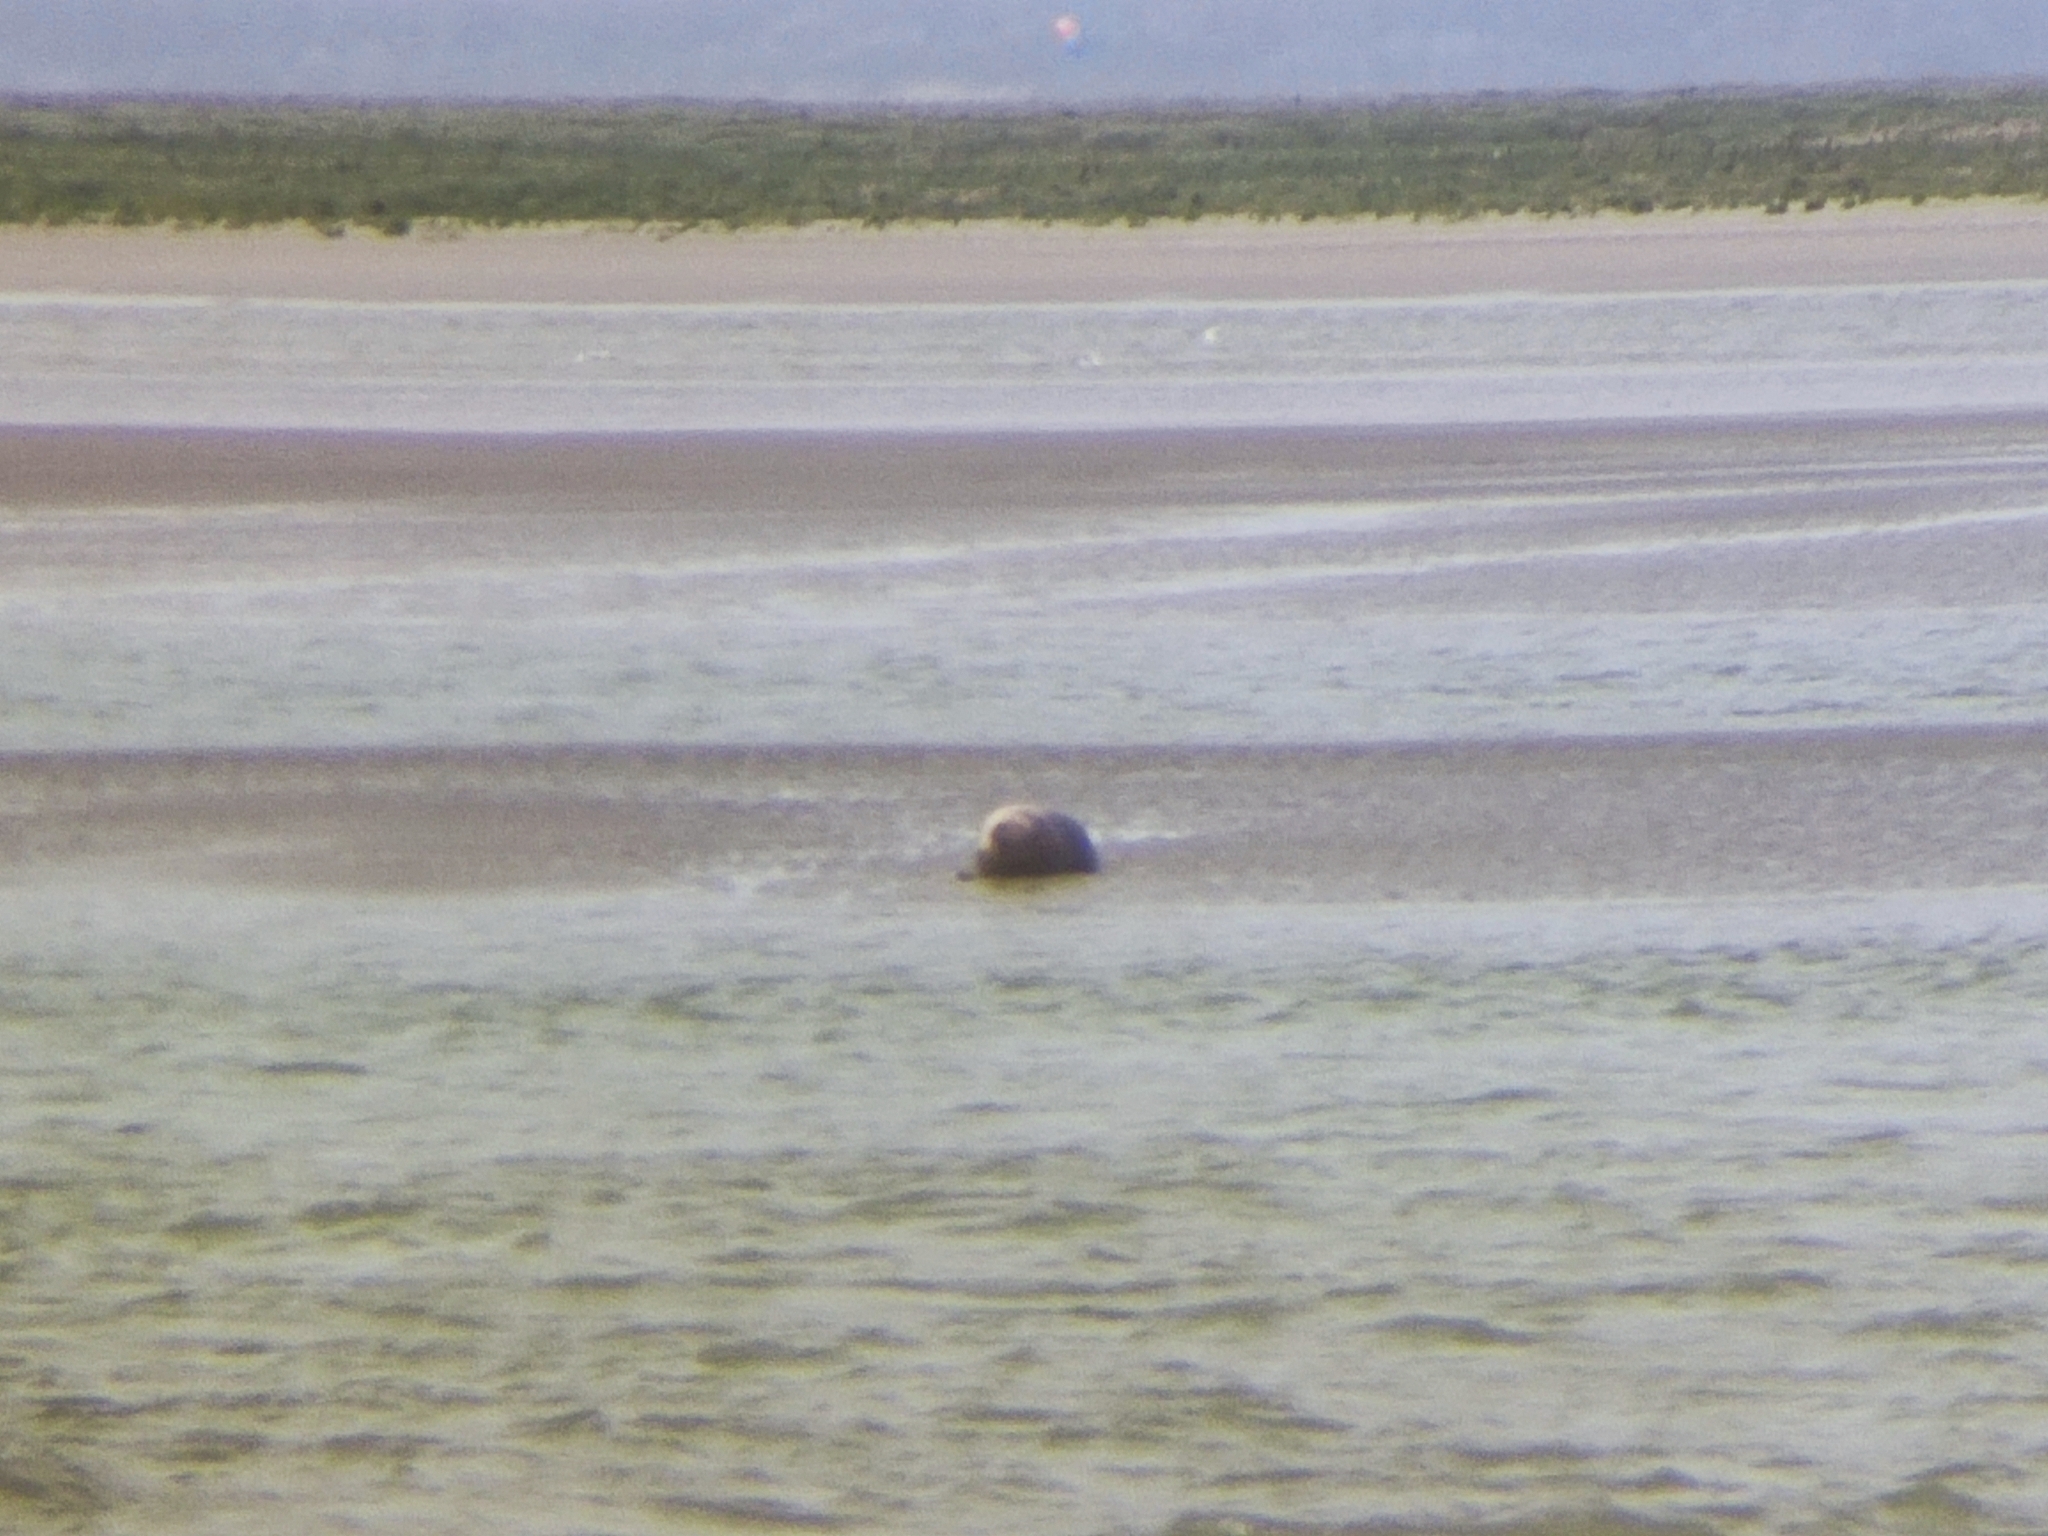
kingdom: Animalia
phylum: Chordata
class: Mammalia
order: Carnivora
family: Phocidae
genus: Phoca
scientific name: Phoca vitulina
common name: Harbor seal
